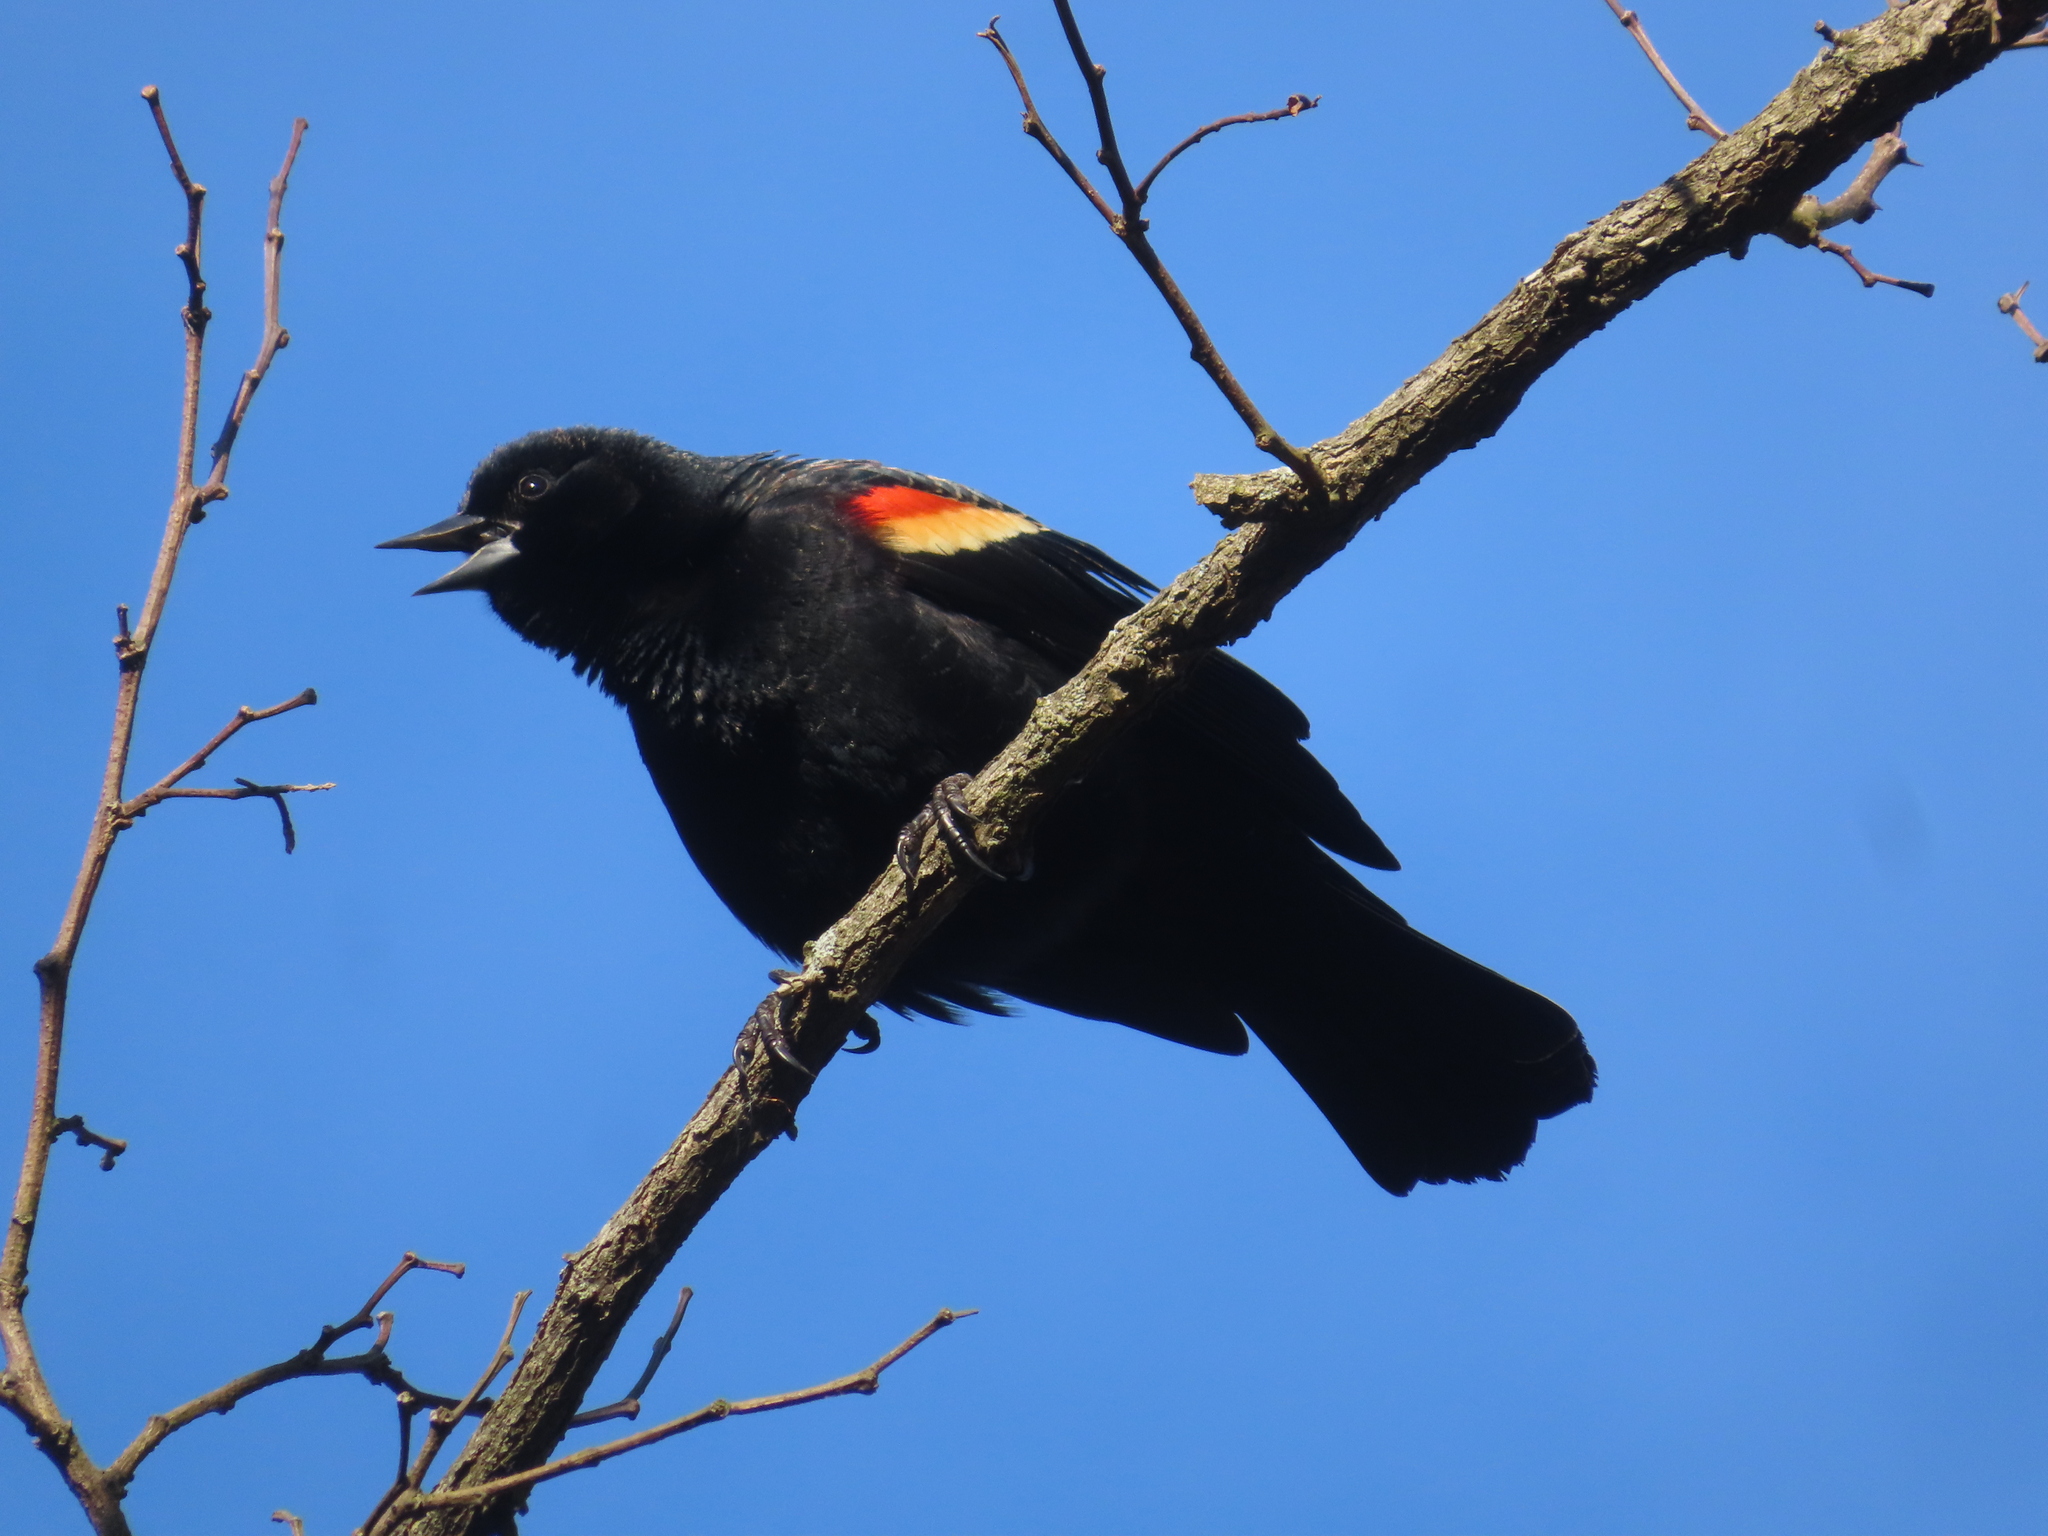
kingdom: Animalia
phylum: Chordata
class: Aves
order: Passeriformes
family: Icteridae
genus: Agelaius
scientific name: Agelaius phoeniceus
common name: Red-winged blackbird
